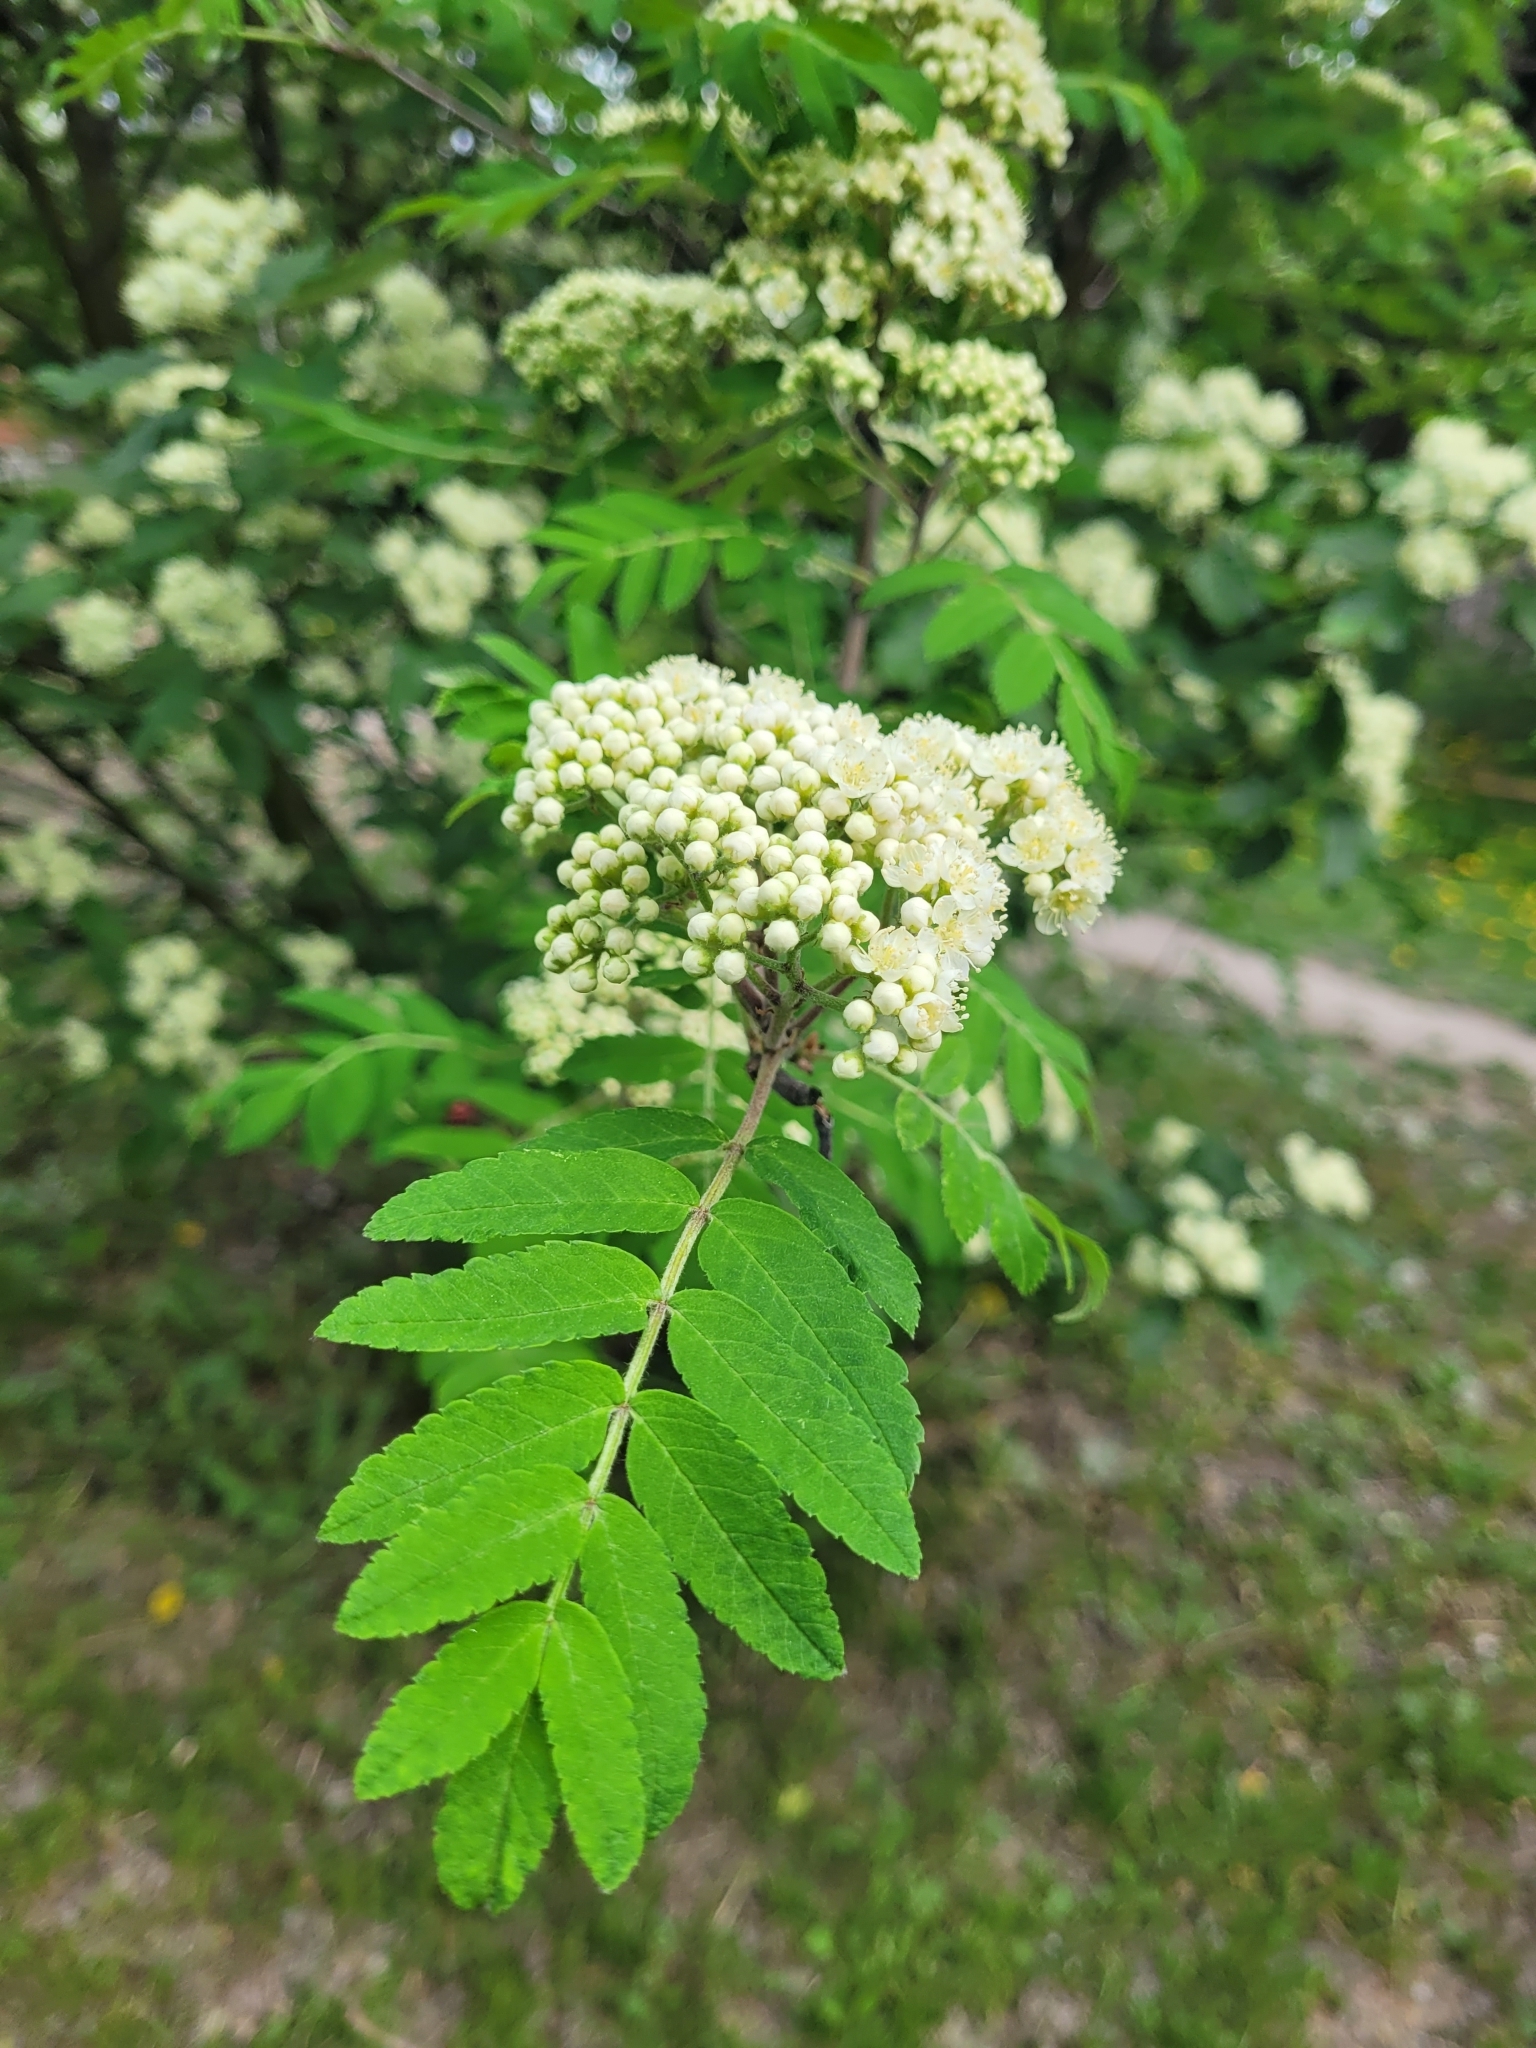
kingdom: Plantae
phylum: Tracheophyta
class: Magnoliopsida
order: Rosales
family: Rosaceae
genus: Sorbus
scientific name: Sorbus aucuparia
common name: Rowan
